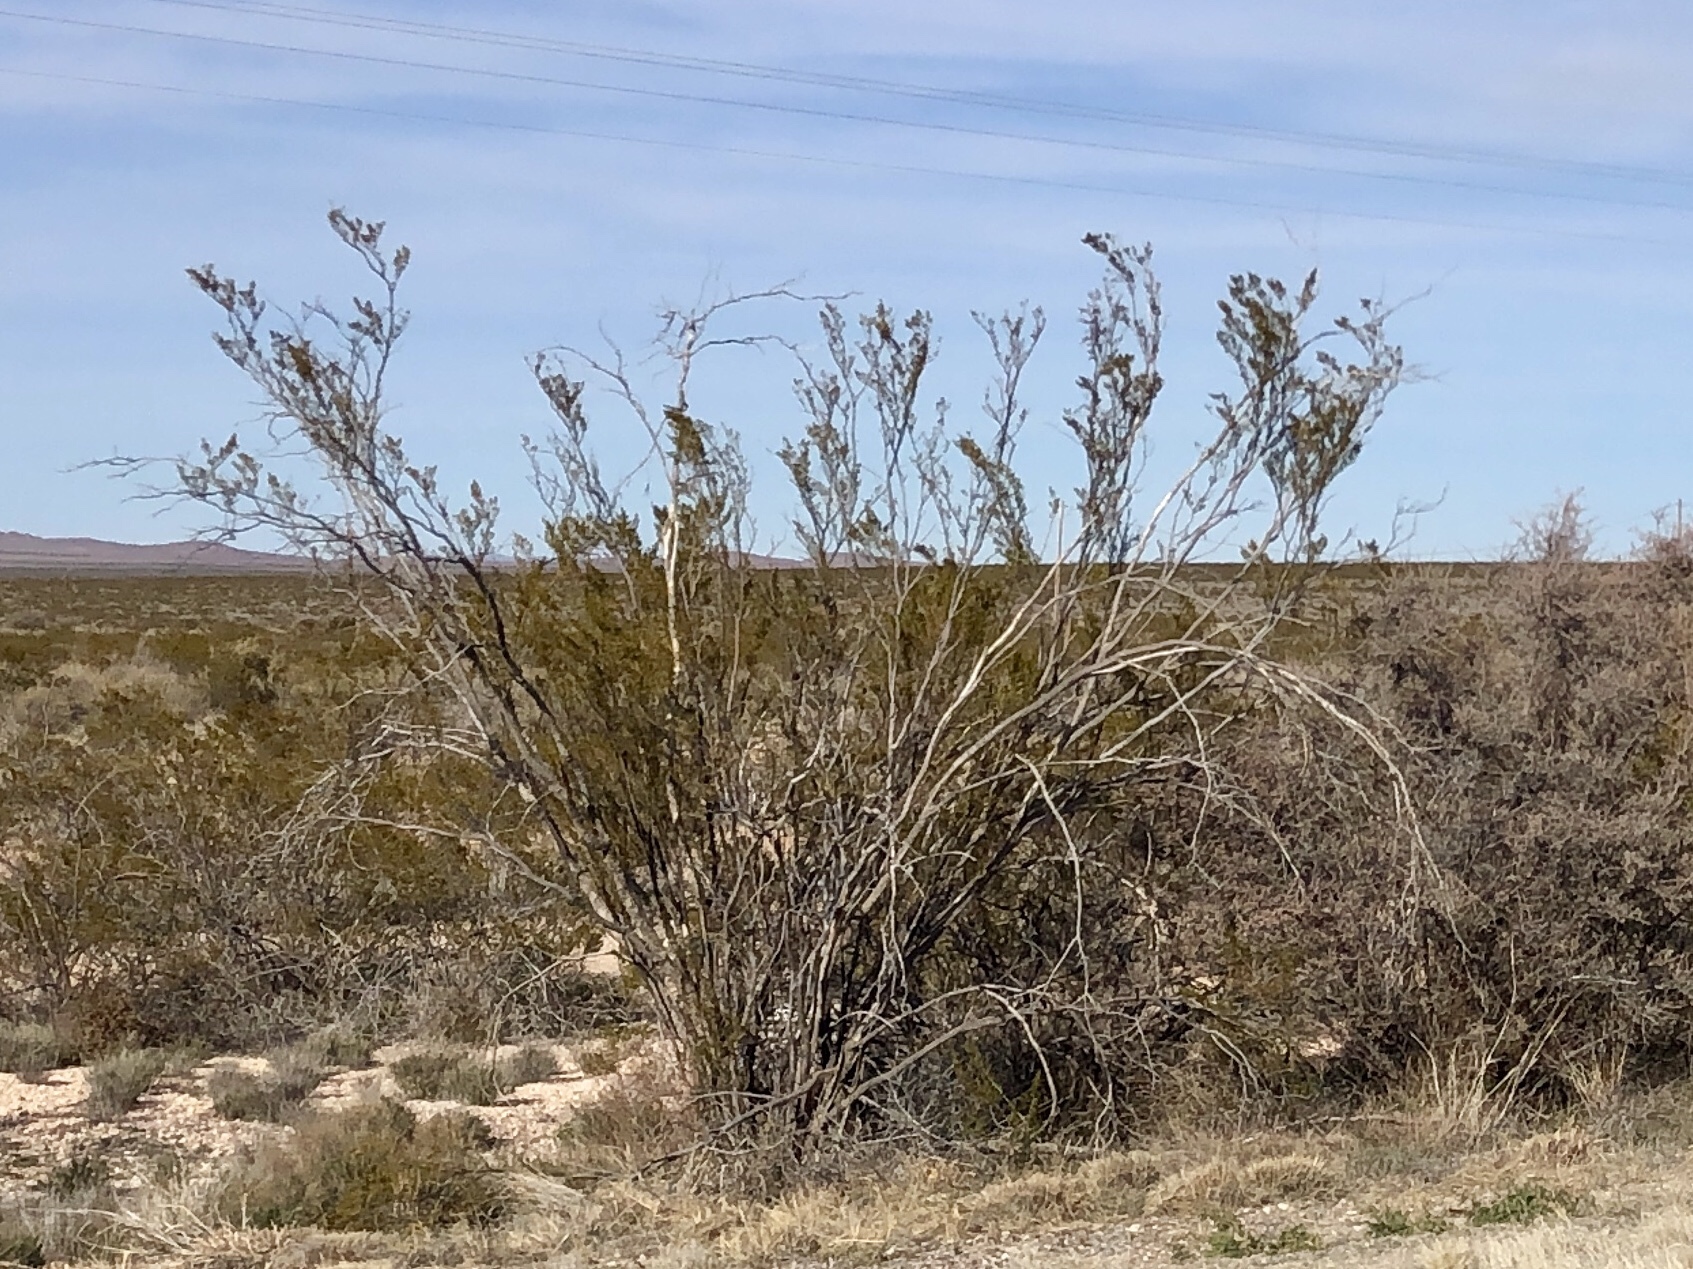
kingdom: Plantae
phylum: Tracheophyta
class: Magnoliopsida
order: Zygophyllales
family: Zygophyllaceae
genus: Larrea
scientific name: Larrea tridentata
